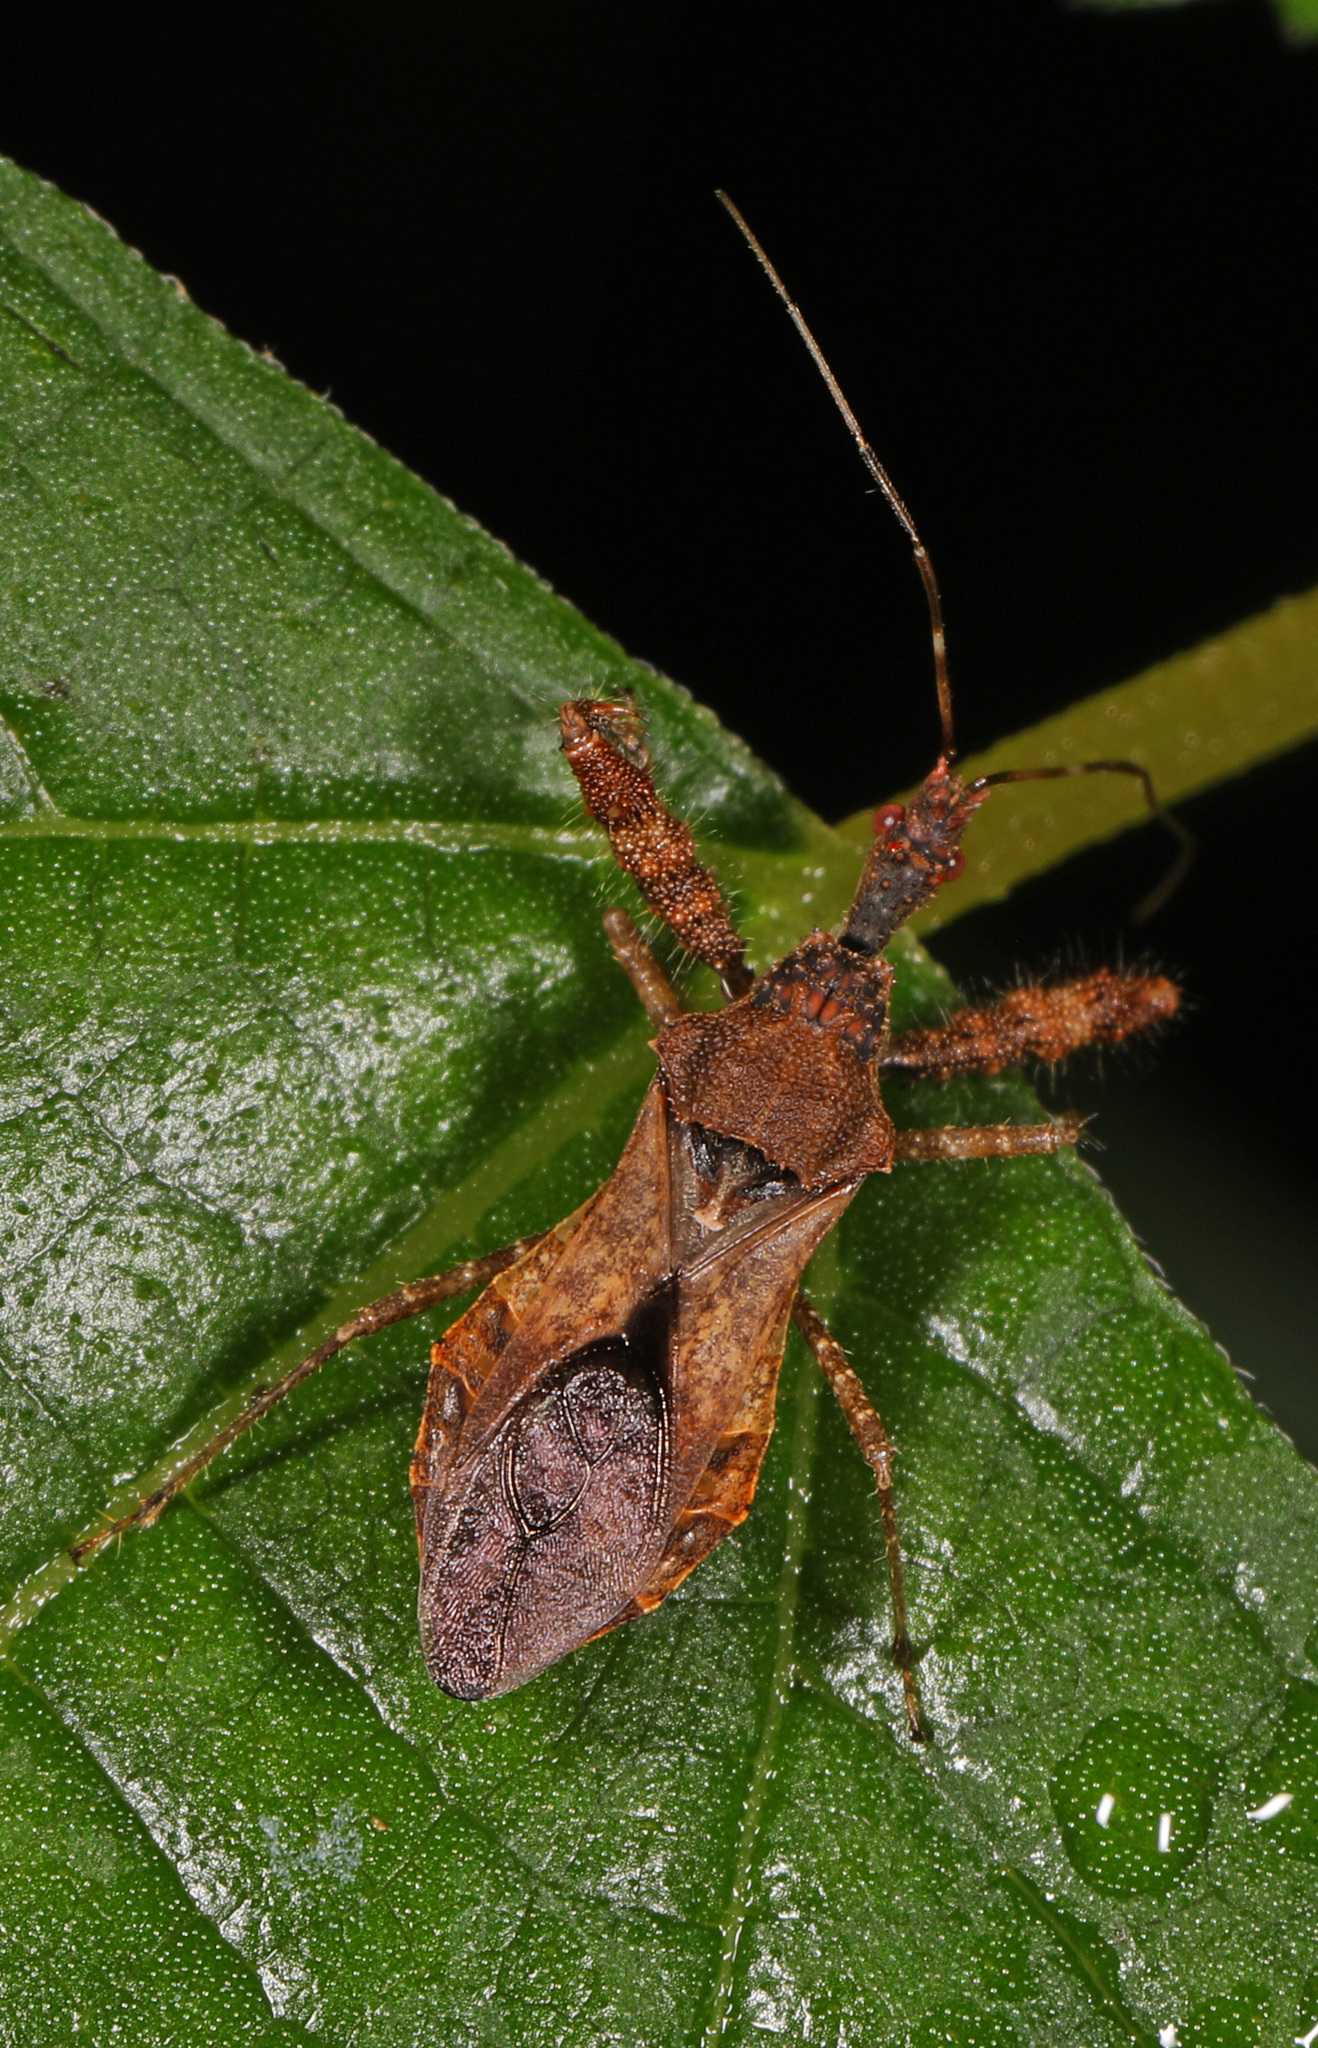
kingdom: Animalia
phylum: Arthropoda
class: Insecta
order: Hemiptera
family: Reduviidae
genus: Sinea
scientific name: Sinea spinipes
